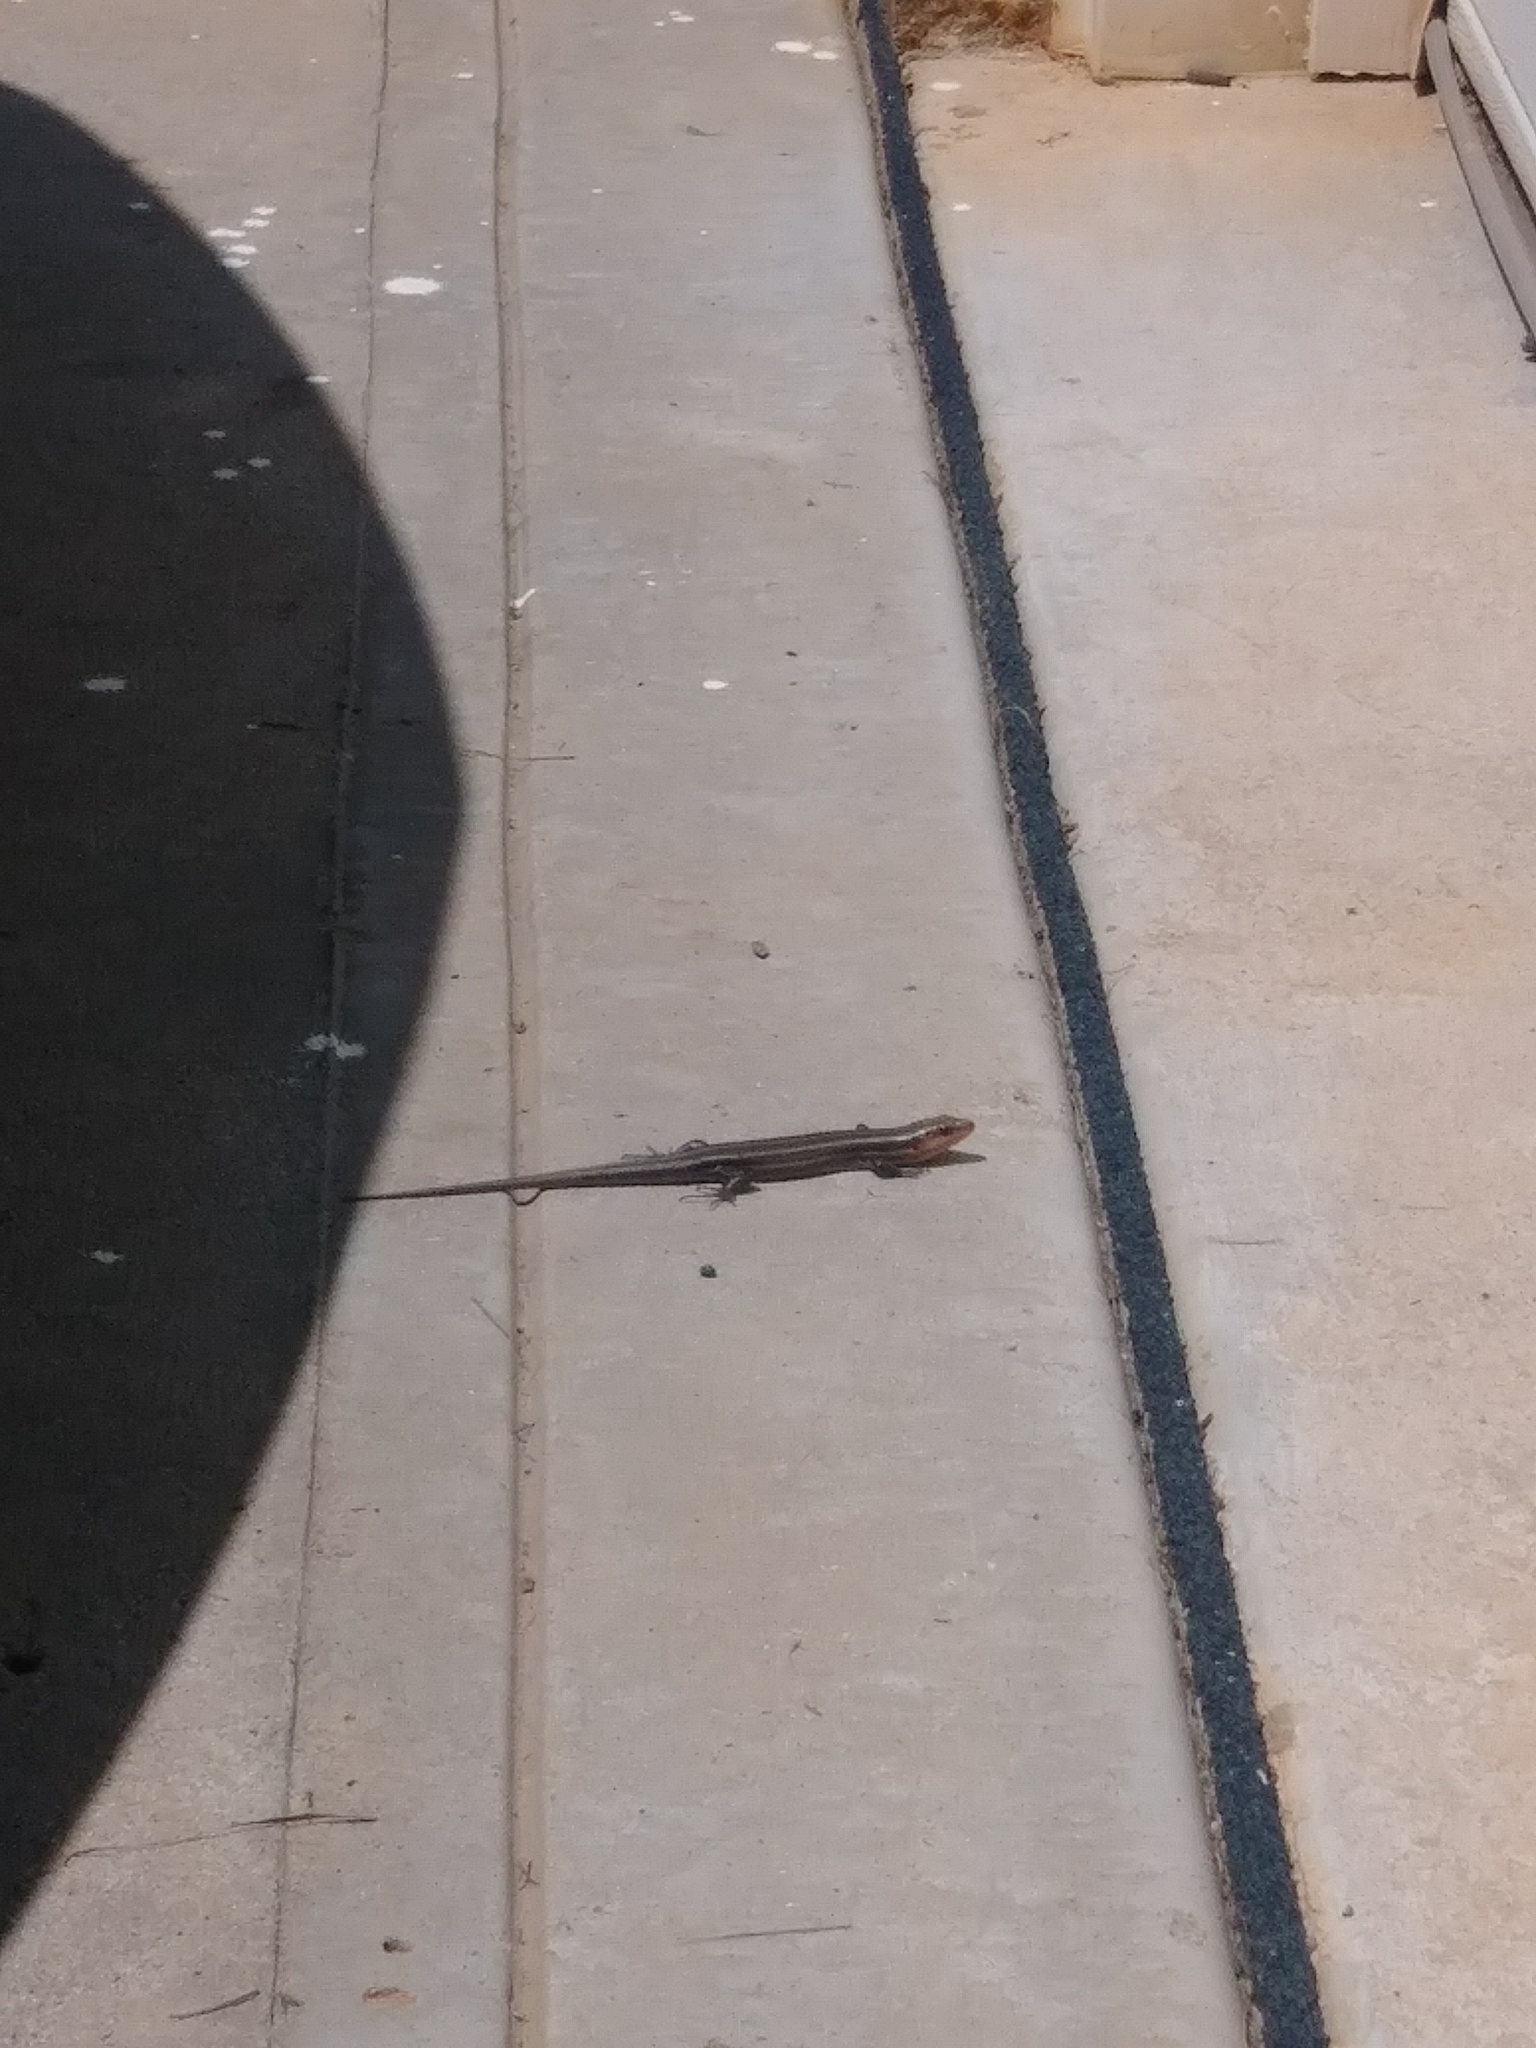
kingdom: Animalia
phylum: Chordata
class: Squamata
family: Scincidae
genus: Plestiodon
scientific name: Plestiodon fasciatus
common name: Five-lined skink
